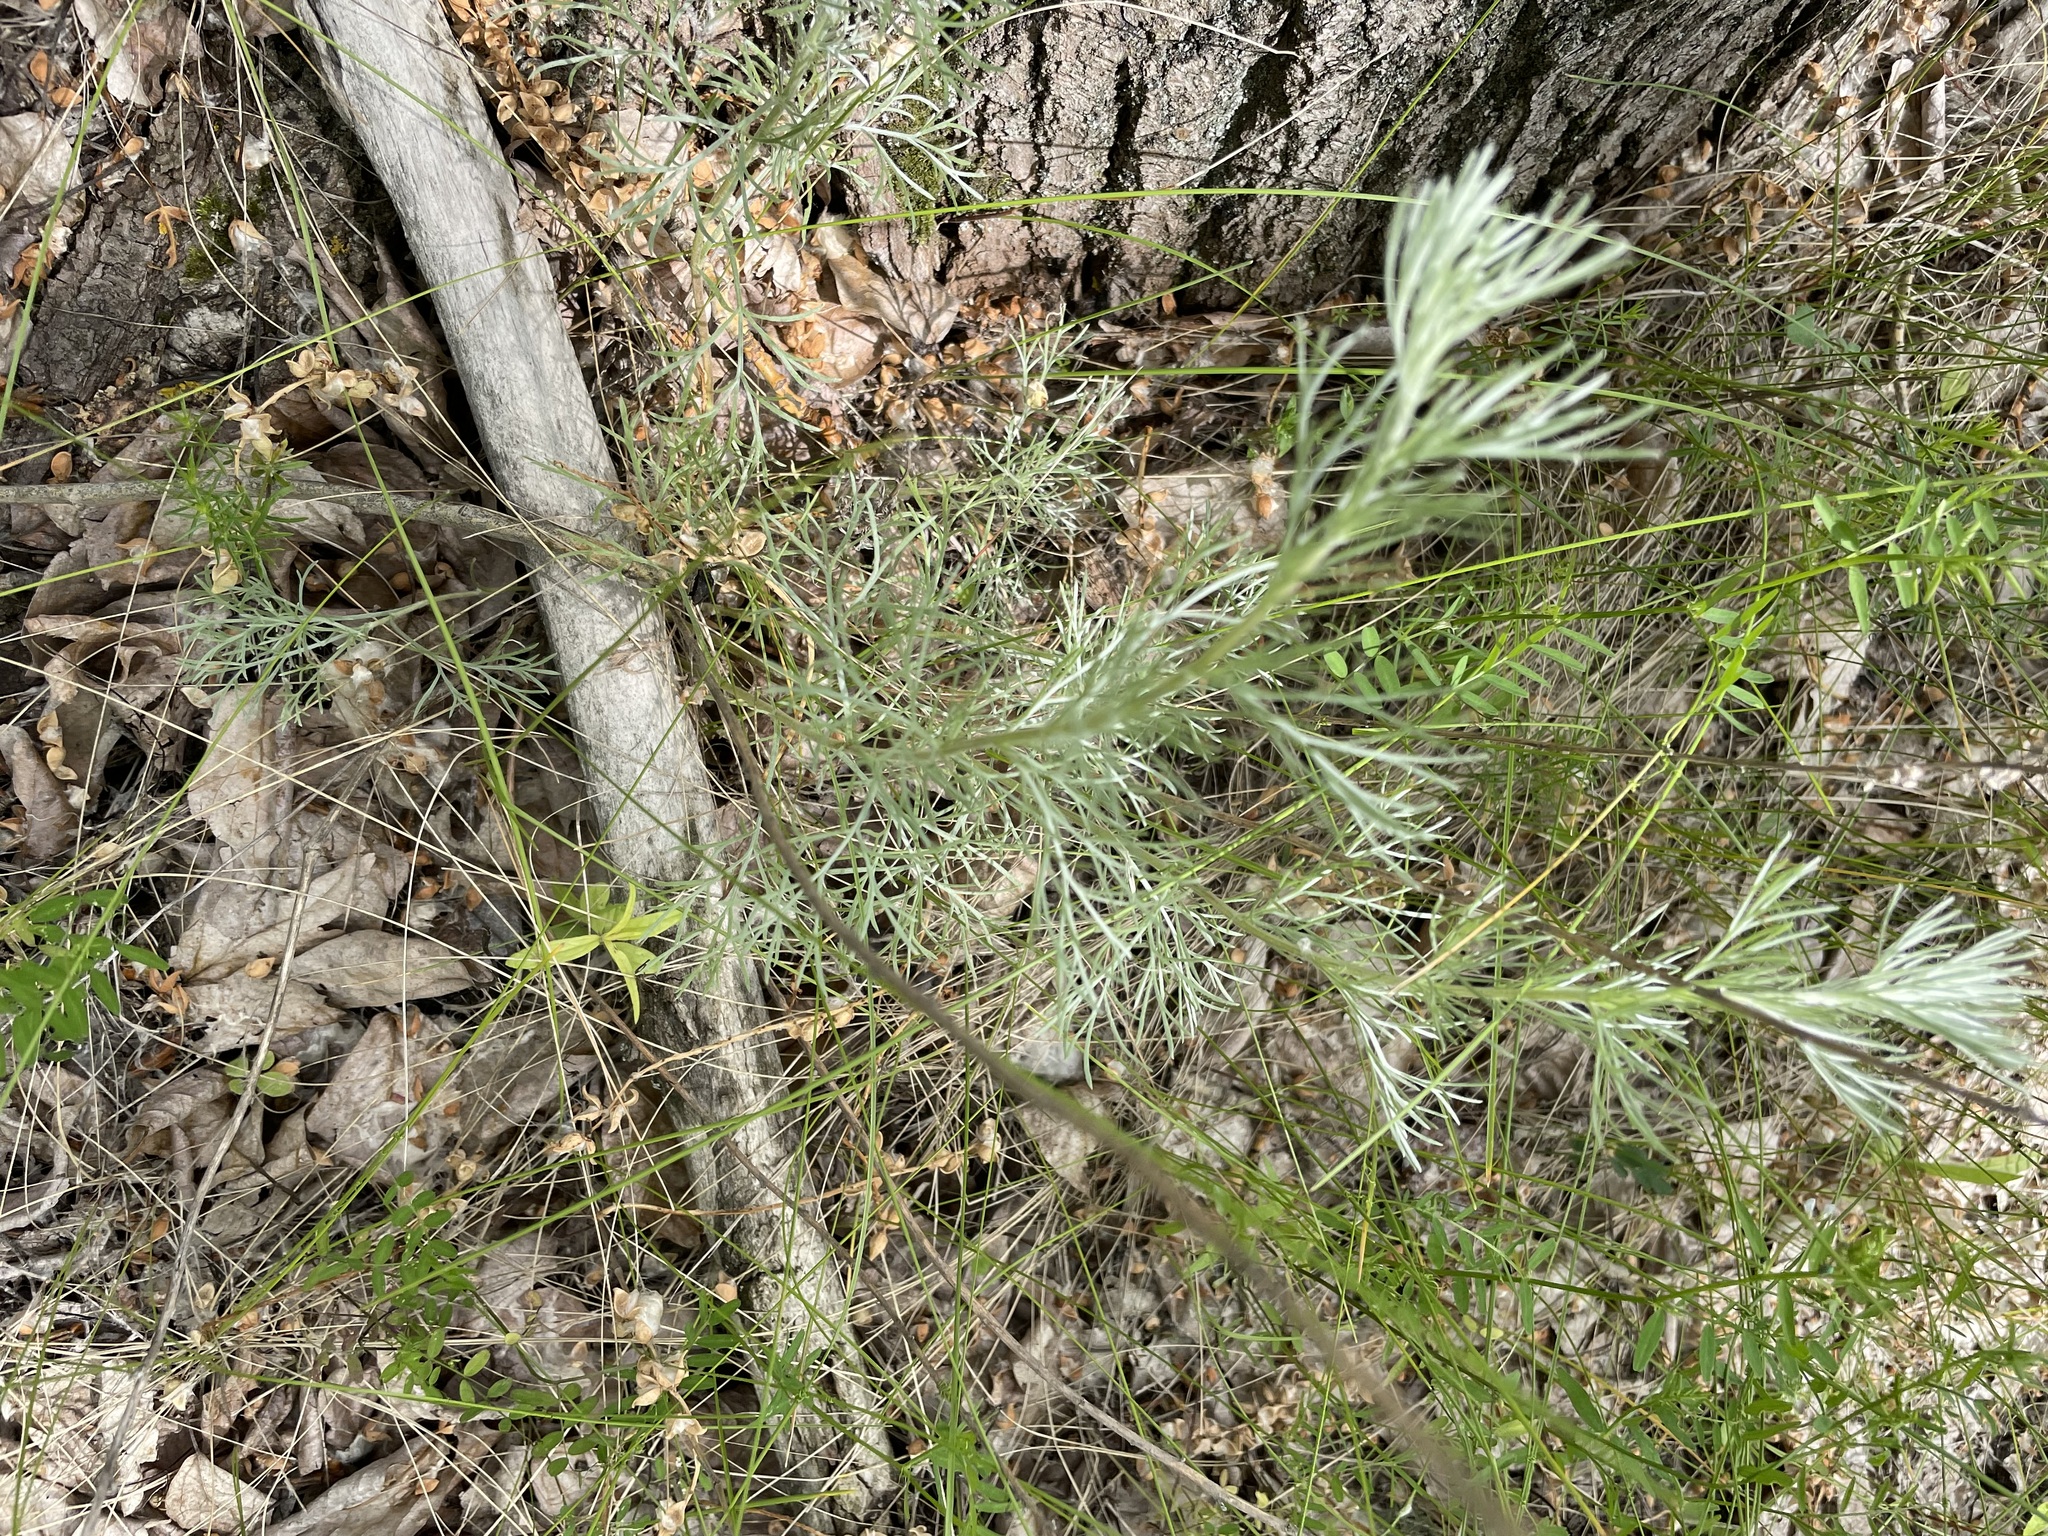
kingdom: Plantae
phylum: Tracheophyta
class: Magnoliopsida
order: Asterales
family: Asteraceae
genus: Artemisia
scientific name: Artemisia campestris
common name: Field wormwood
